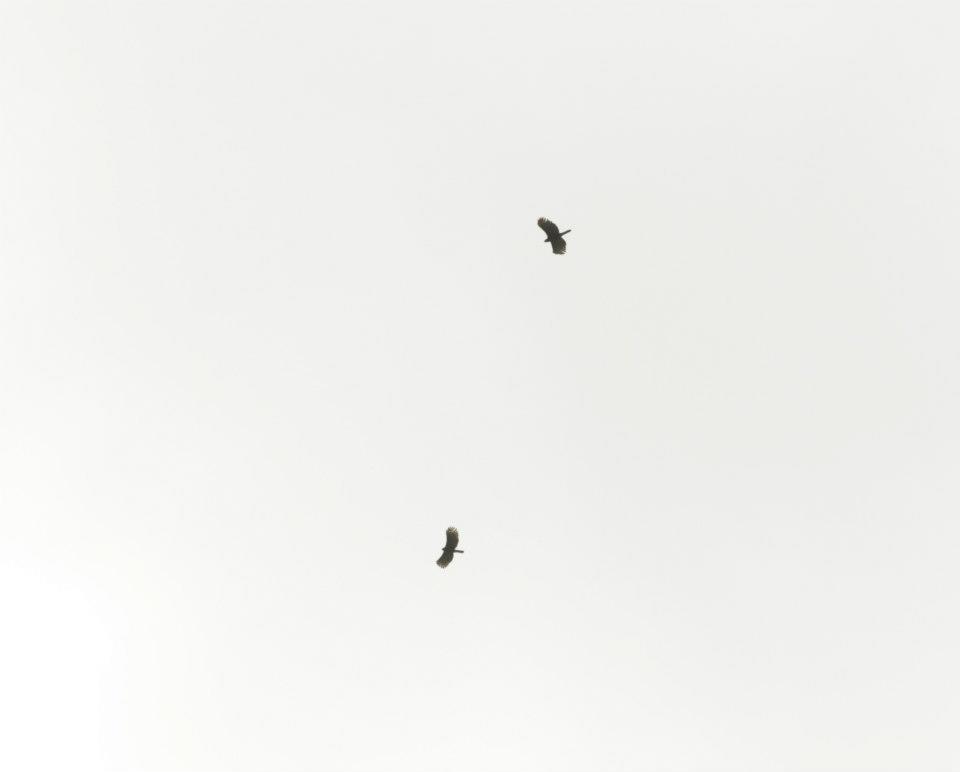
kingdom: Animalia
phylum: Chordata
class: Aves
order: Accipitriformes
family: Accipitridae
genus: Spizaetus
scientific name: Spizaetus tyrannus
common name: Black hawk-eagle
